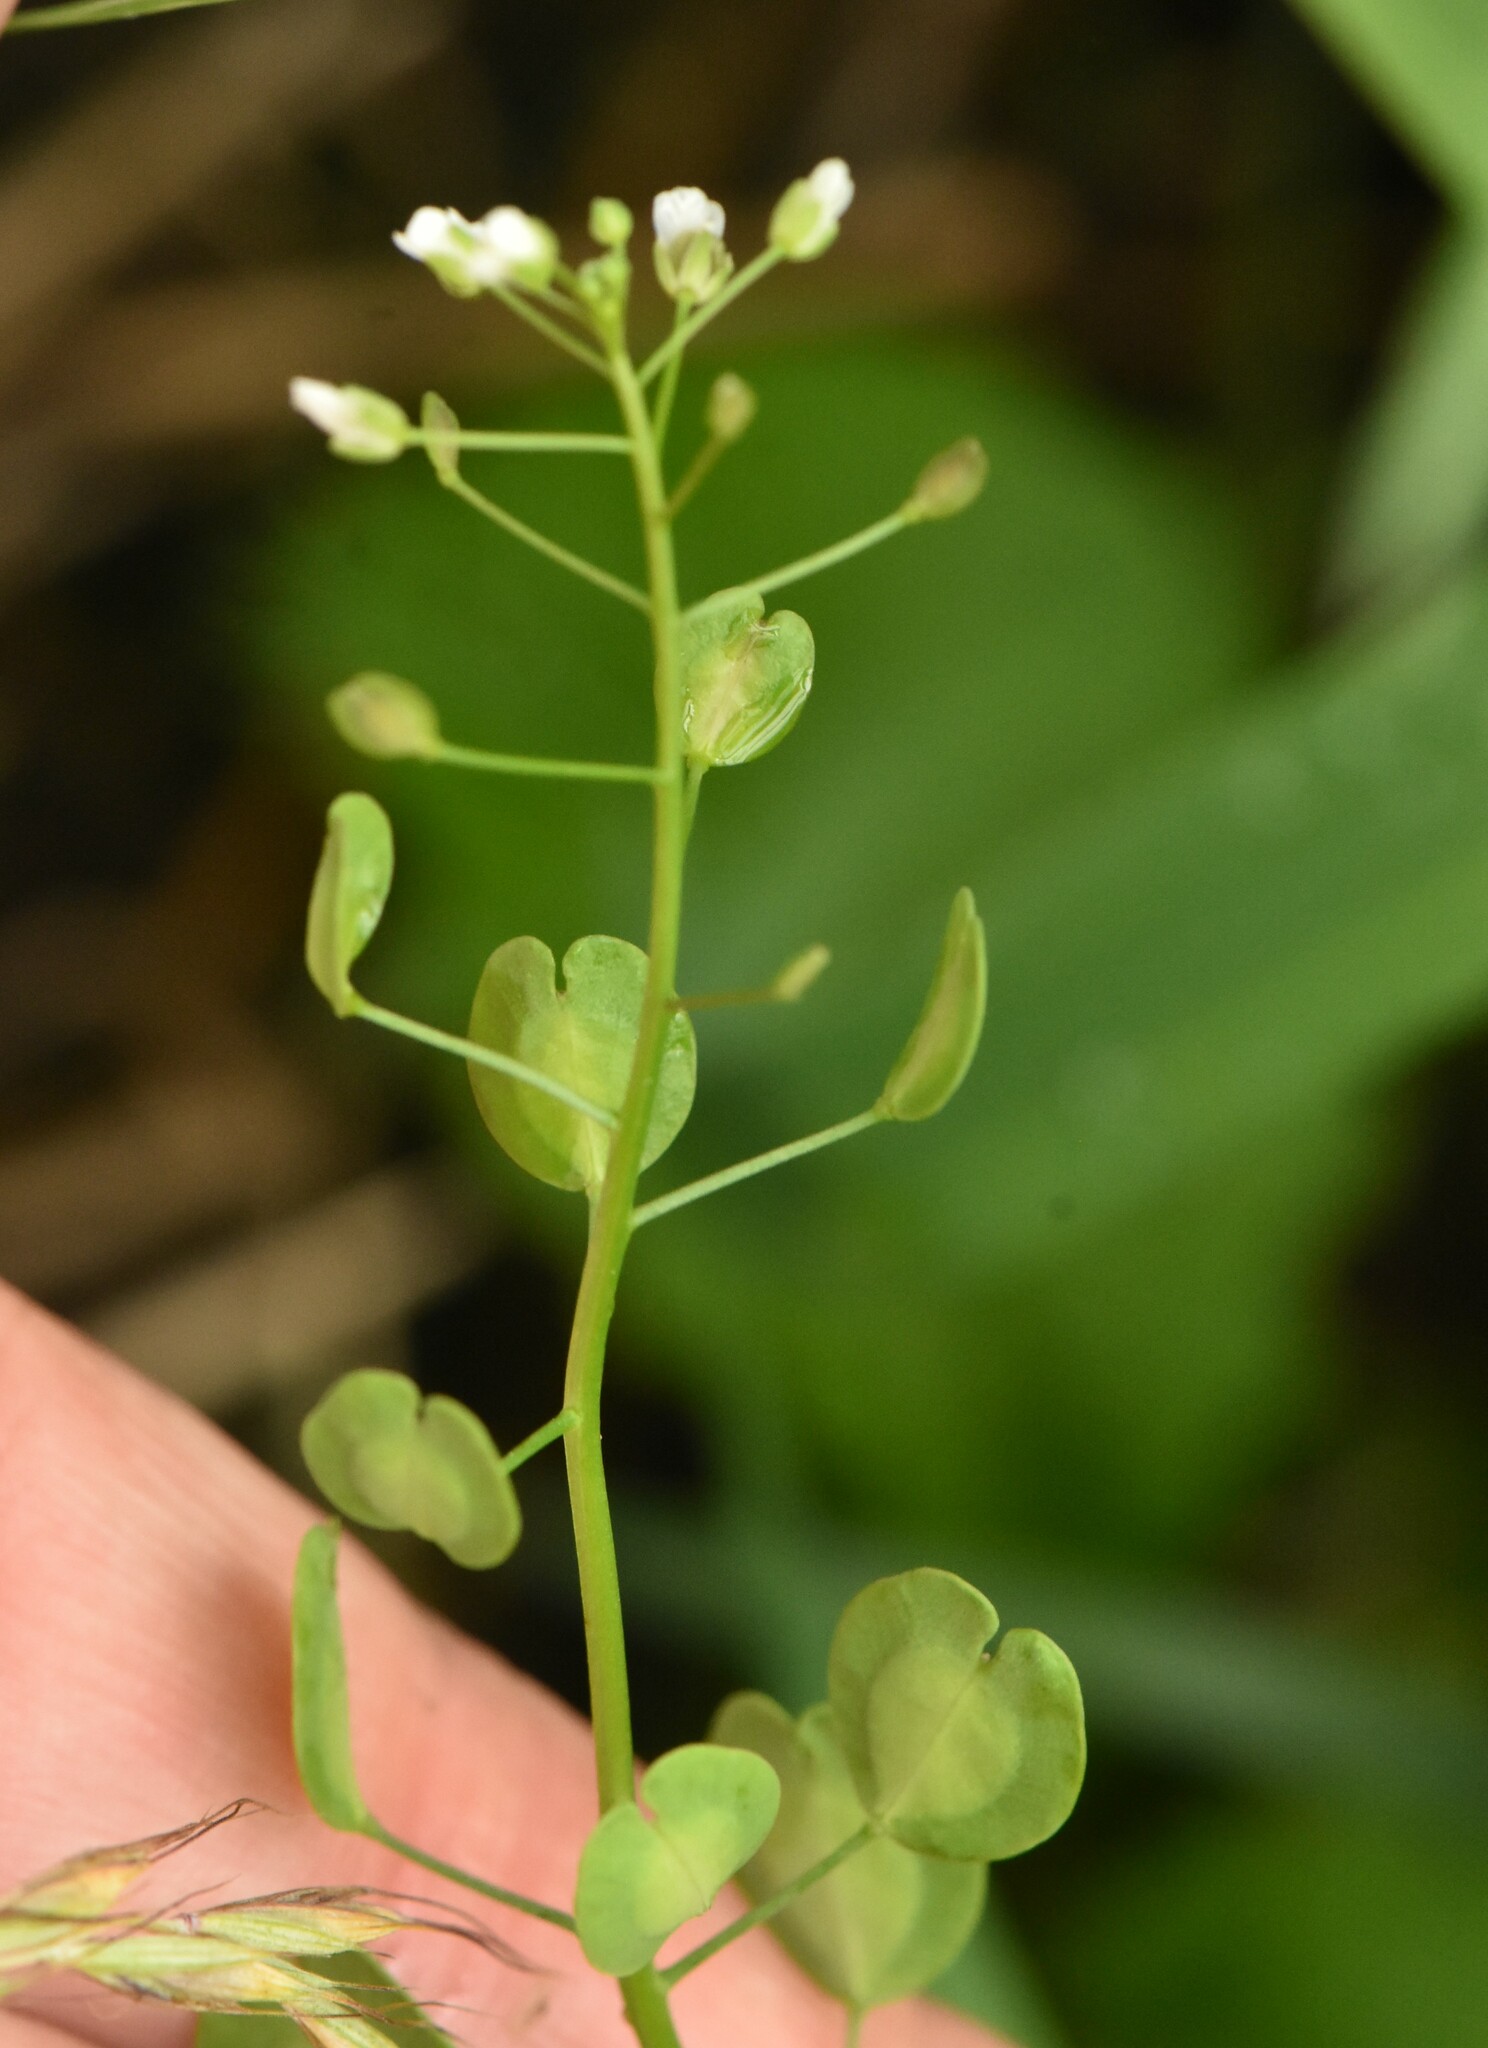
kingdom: Plantae
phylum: Tracheophyta
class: Magnoliopsida
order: Brassicales
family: Brassicaceae
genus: Thlaspi
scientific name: Thlaspi arvense
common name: Field pennycress
